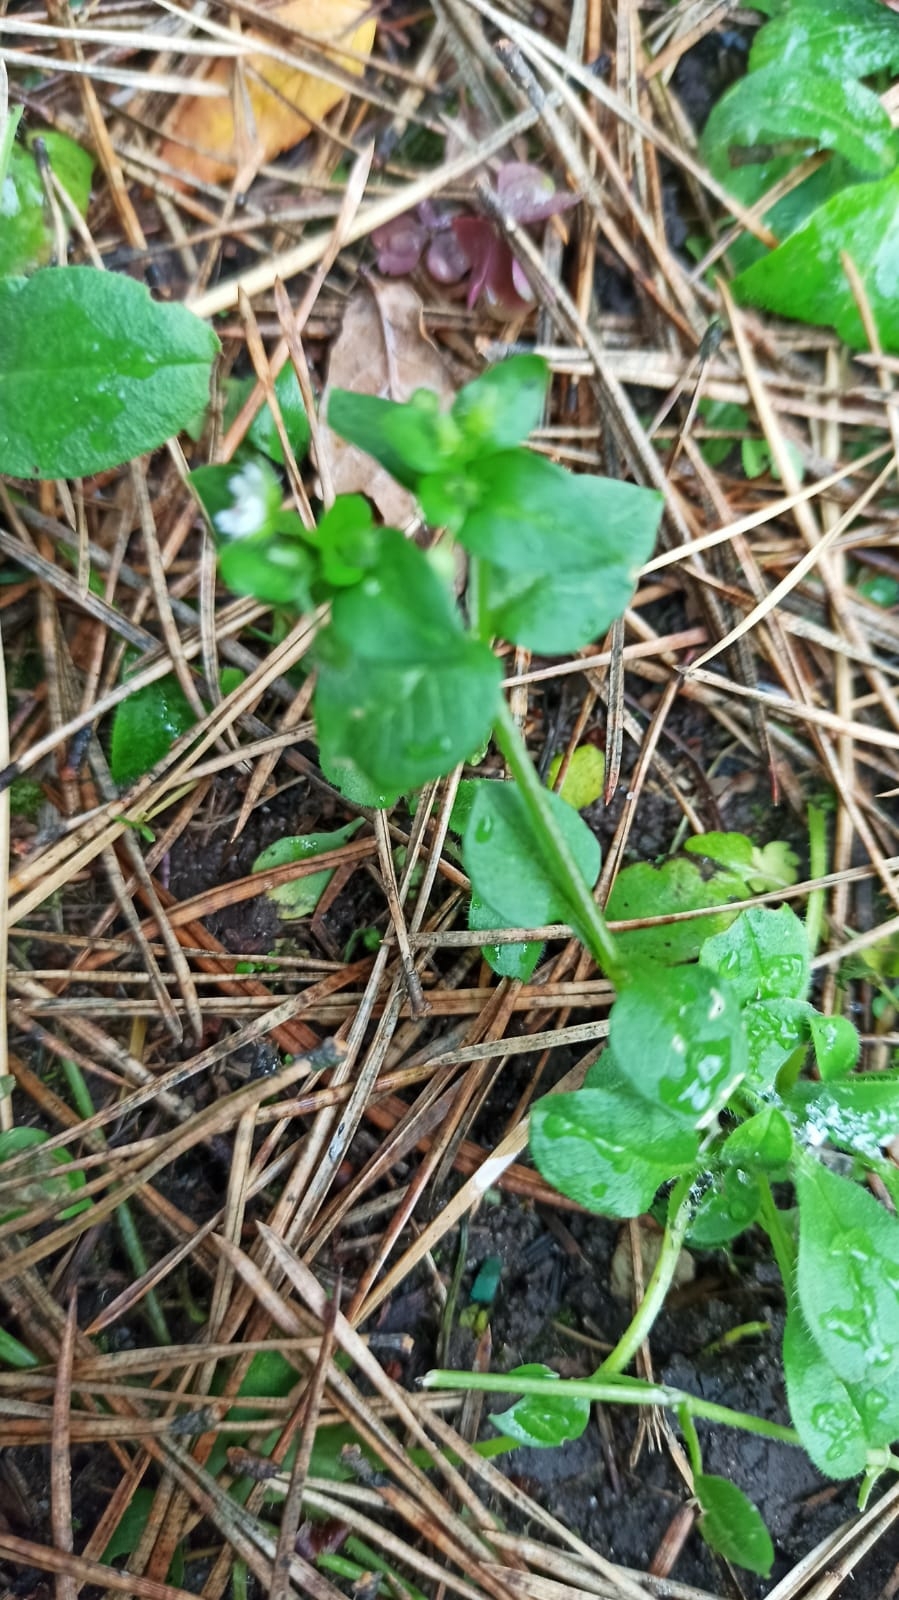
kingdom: Plantae
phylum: Tracheophyta
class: Magnoliopsida
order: Caryophyllales
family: Caryophyllaceae
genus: Stellaria
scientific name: Stellaria media
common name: Common chickweed
